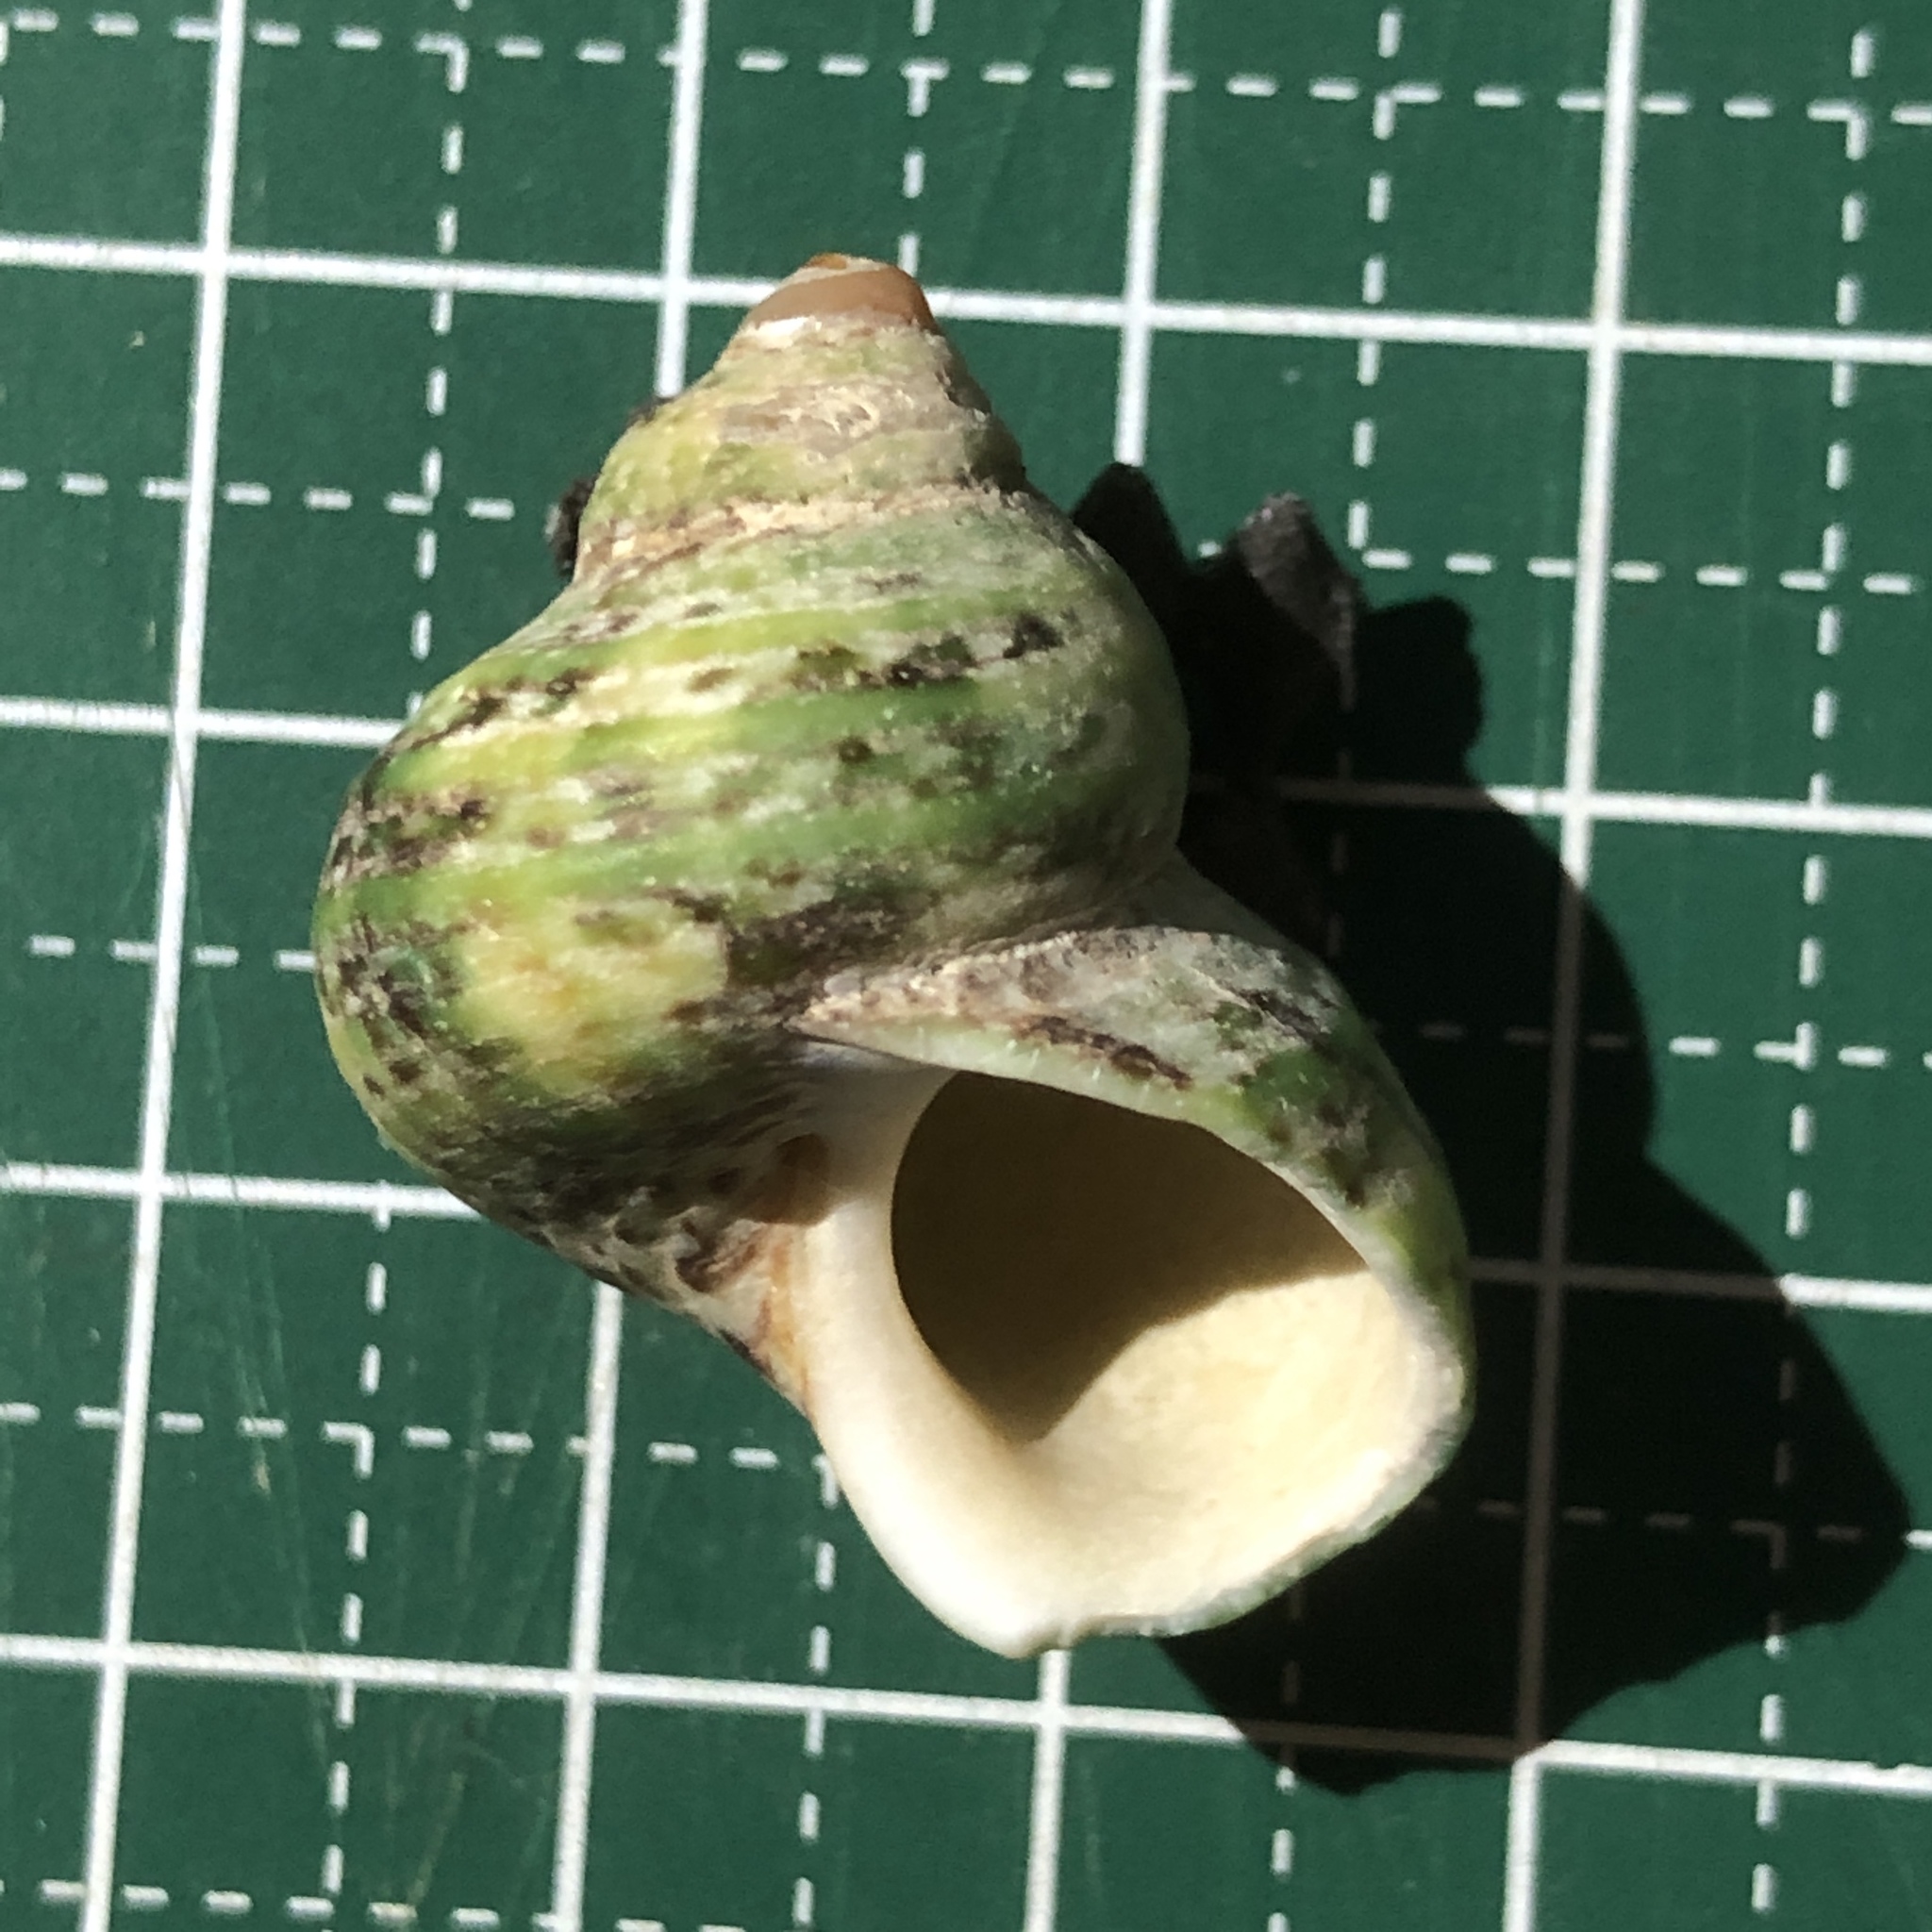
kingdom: Animalia
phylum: Mollusca
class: Gastropoda
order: Trochida
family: Turbinidae
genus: Turbo
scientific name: Turbo stenogyrus
